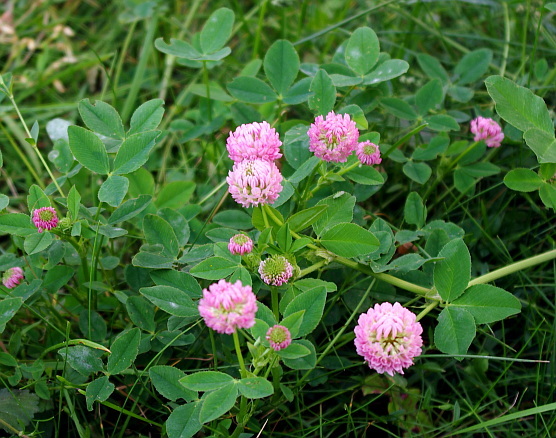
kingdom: Plantae
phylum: Tracheophyta
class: Magnoliopsida
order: Fabales
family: Fabaceae
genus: Trifolium
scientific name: Trifolium hybridum
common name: Alsike clover
